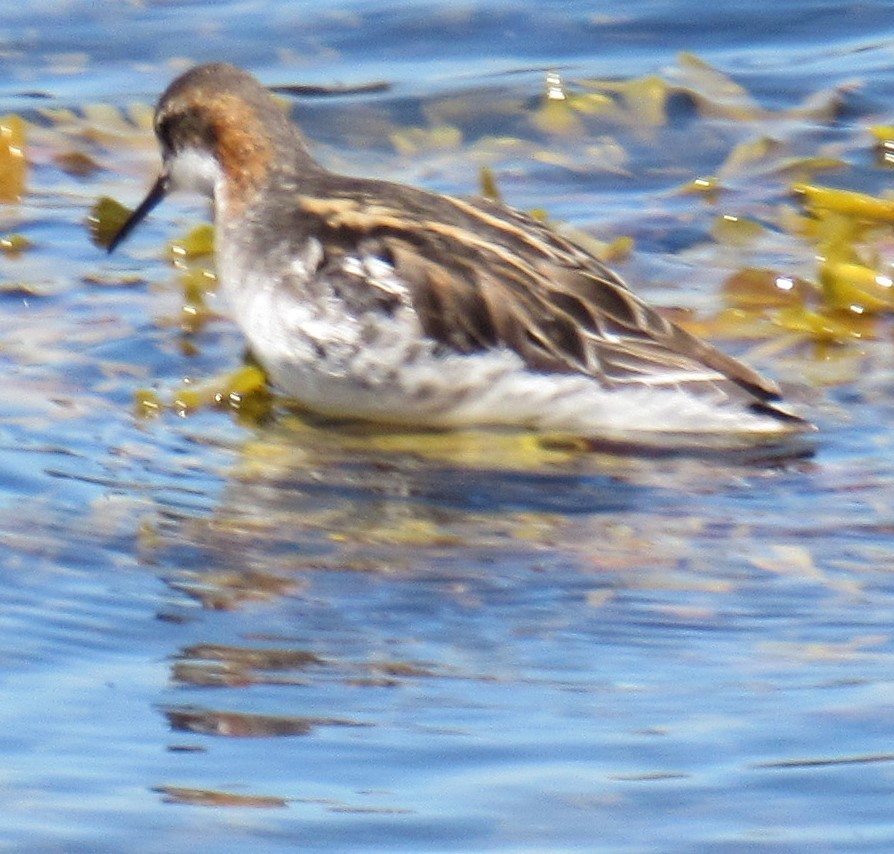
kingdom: Animalia
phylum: Chordata
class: Aves
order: Charadriiformes
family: Scolopacidae
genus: Phalaropus
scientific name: Phalaropus lobatus
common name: Red-necked phalarope
